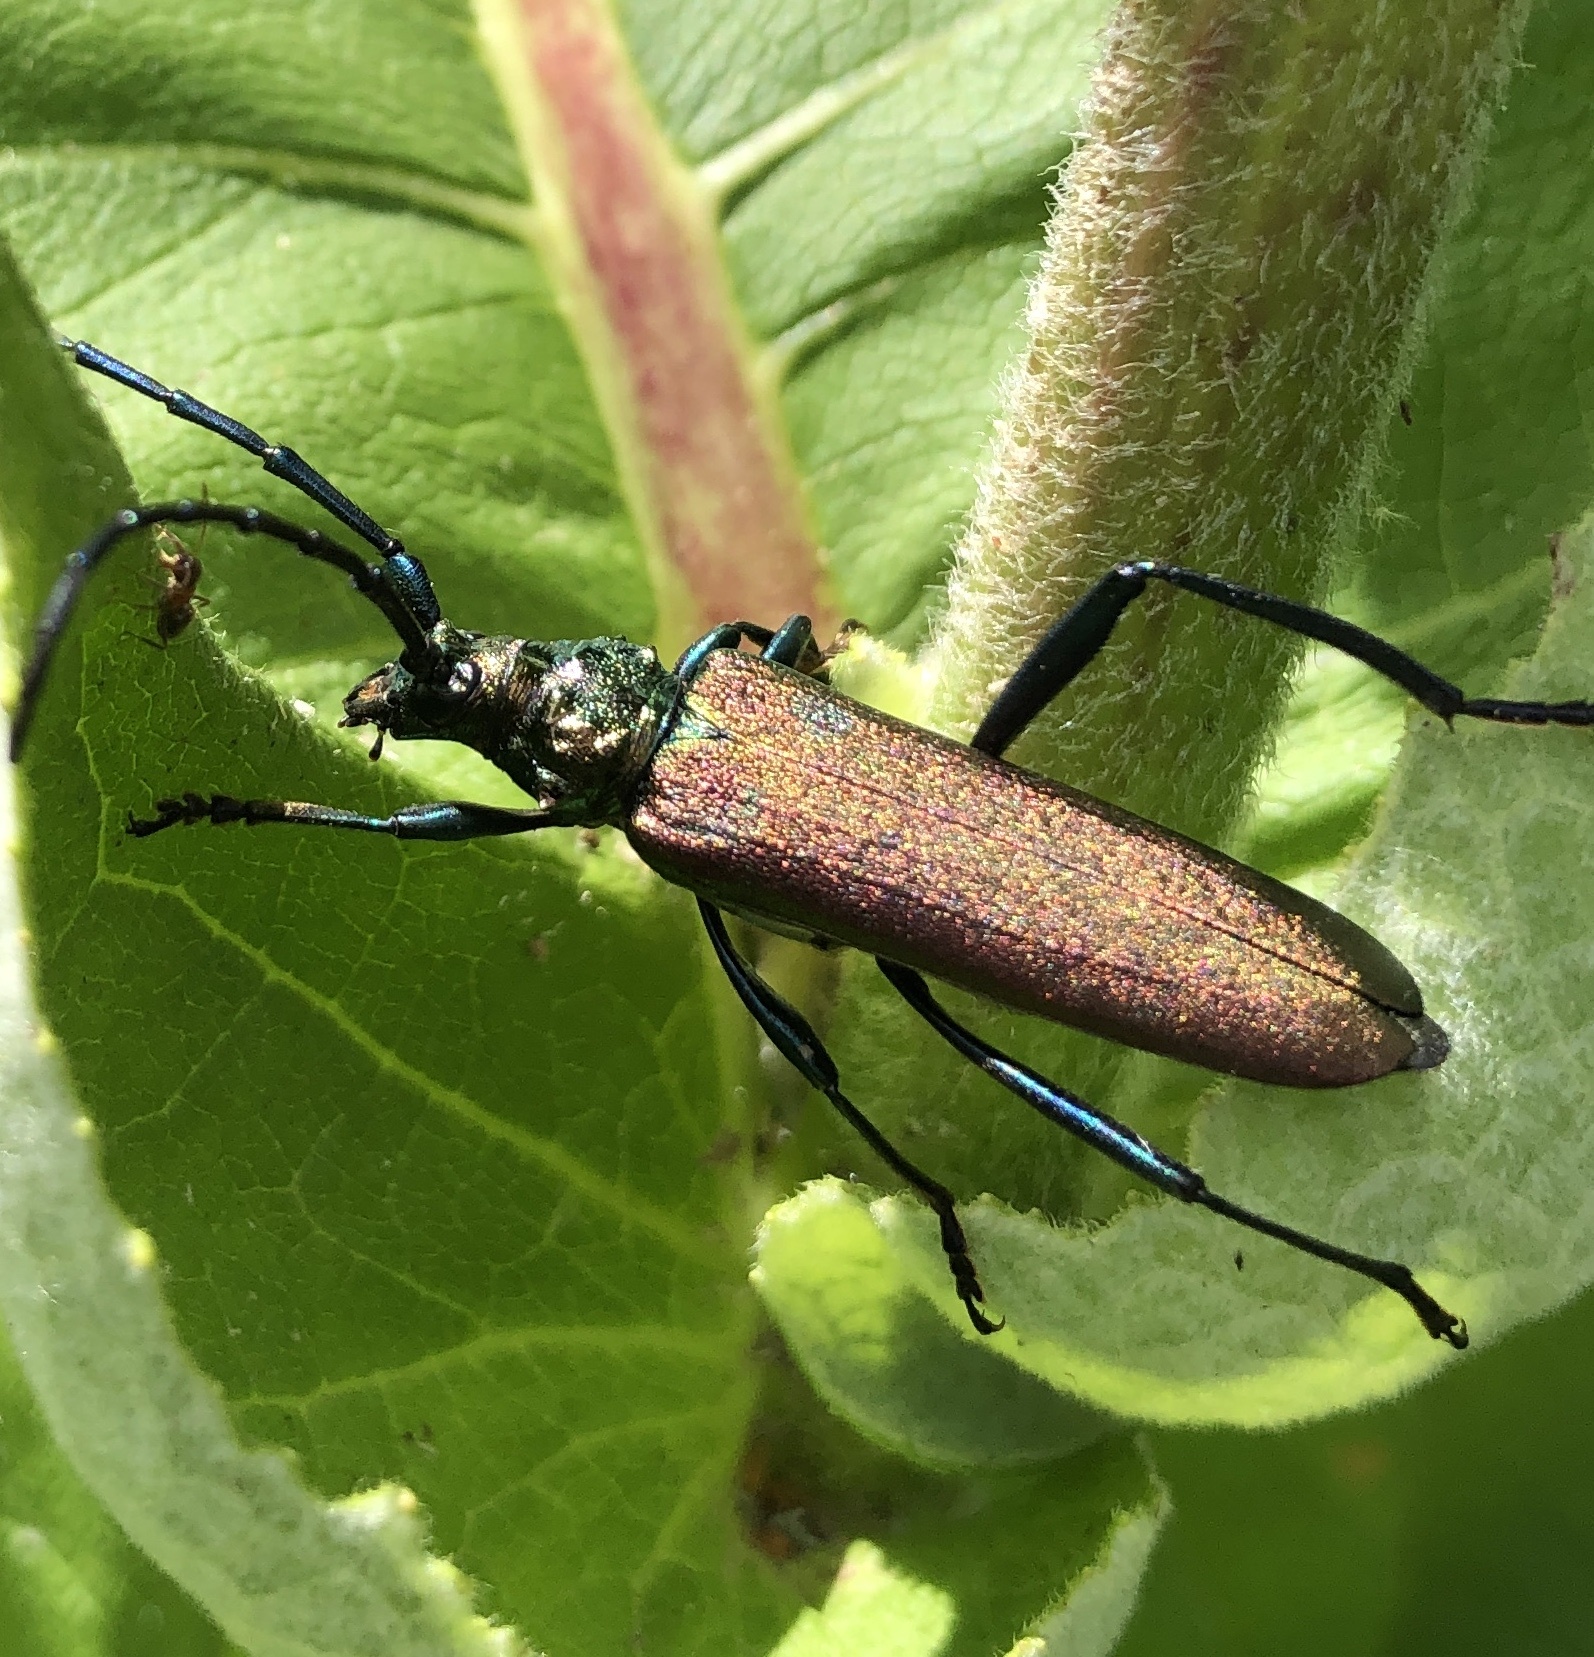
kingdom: Animalia
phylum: Arthropoda
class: Insecta
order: Coleoptera
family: Cerambycidae
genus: Aromia
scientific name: Aromia moschata
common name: Musk beetle
